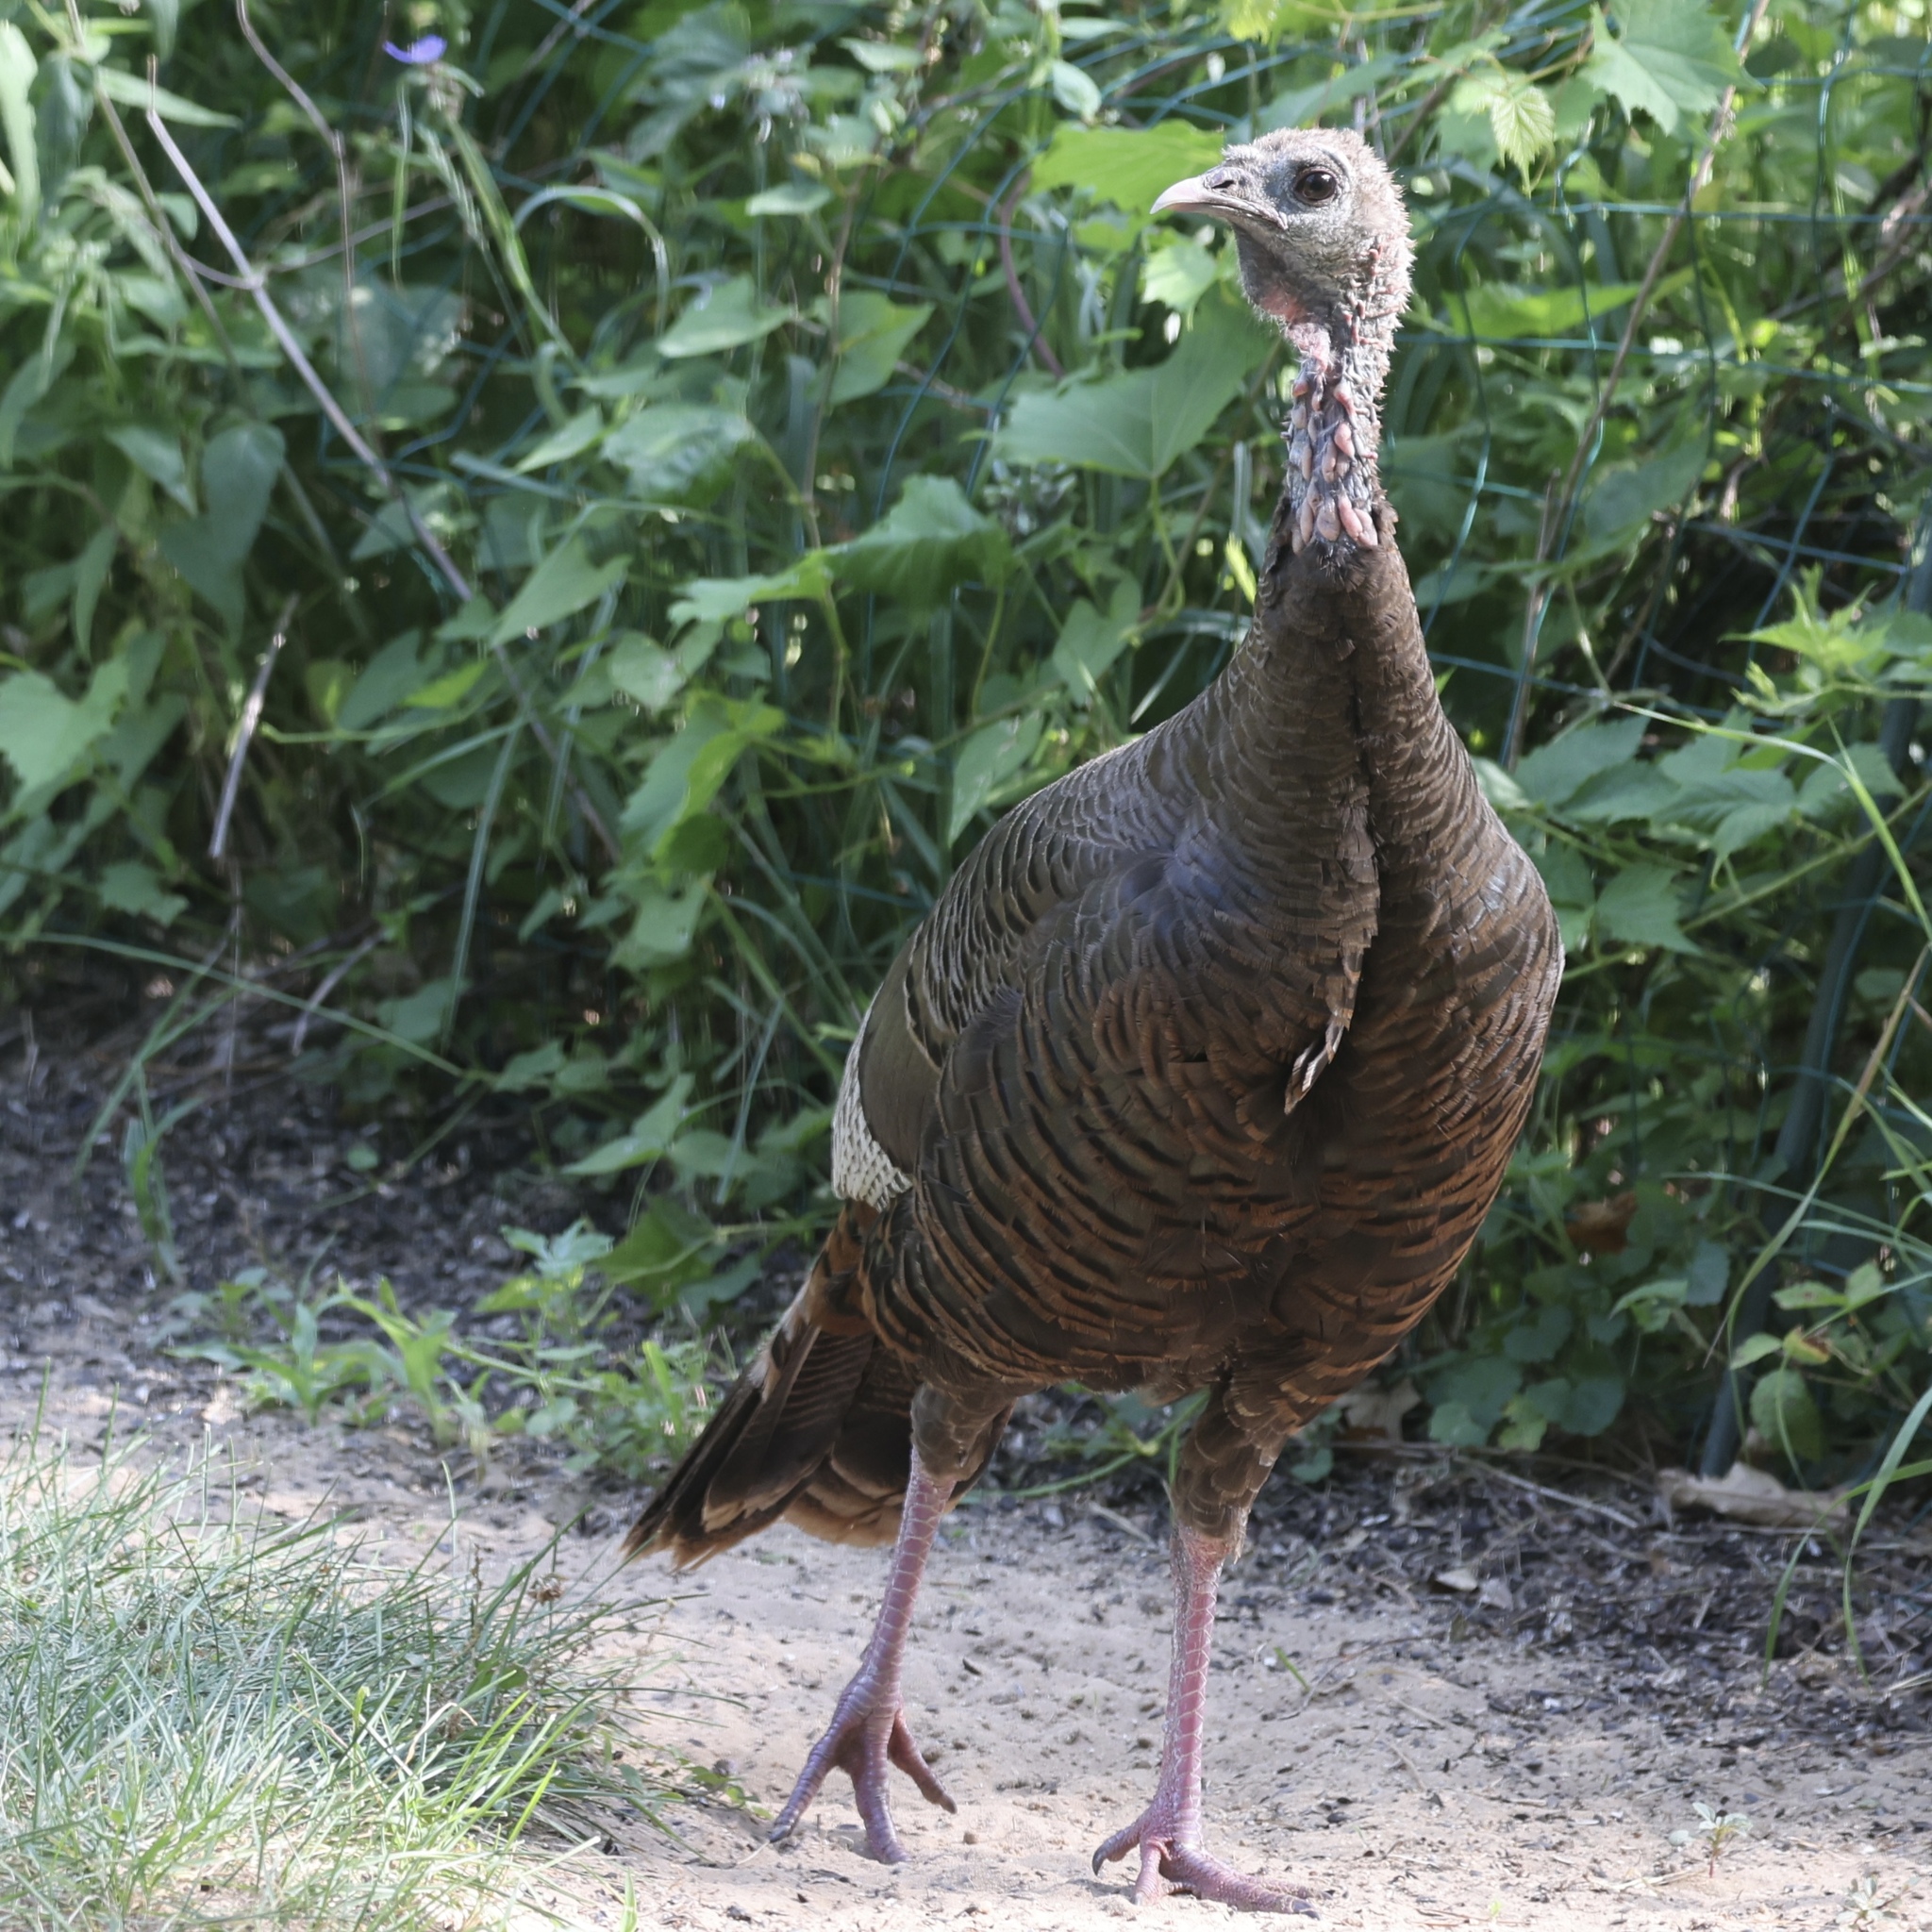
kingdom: Animalia
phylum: Chordata
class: Aves
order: Galliformes
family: Phasianidae
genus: Meleagris
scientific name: Meleagris gallopavo
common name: Wild turkey
